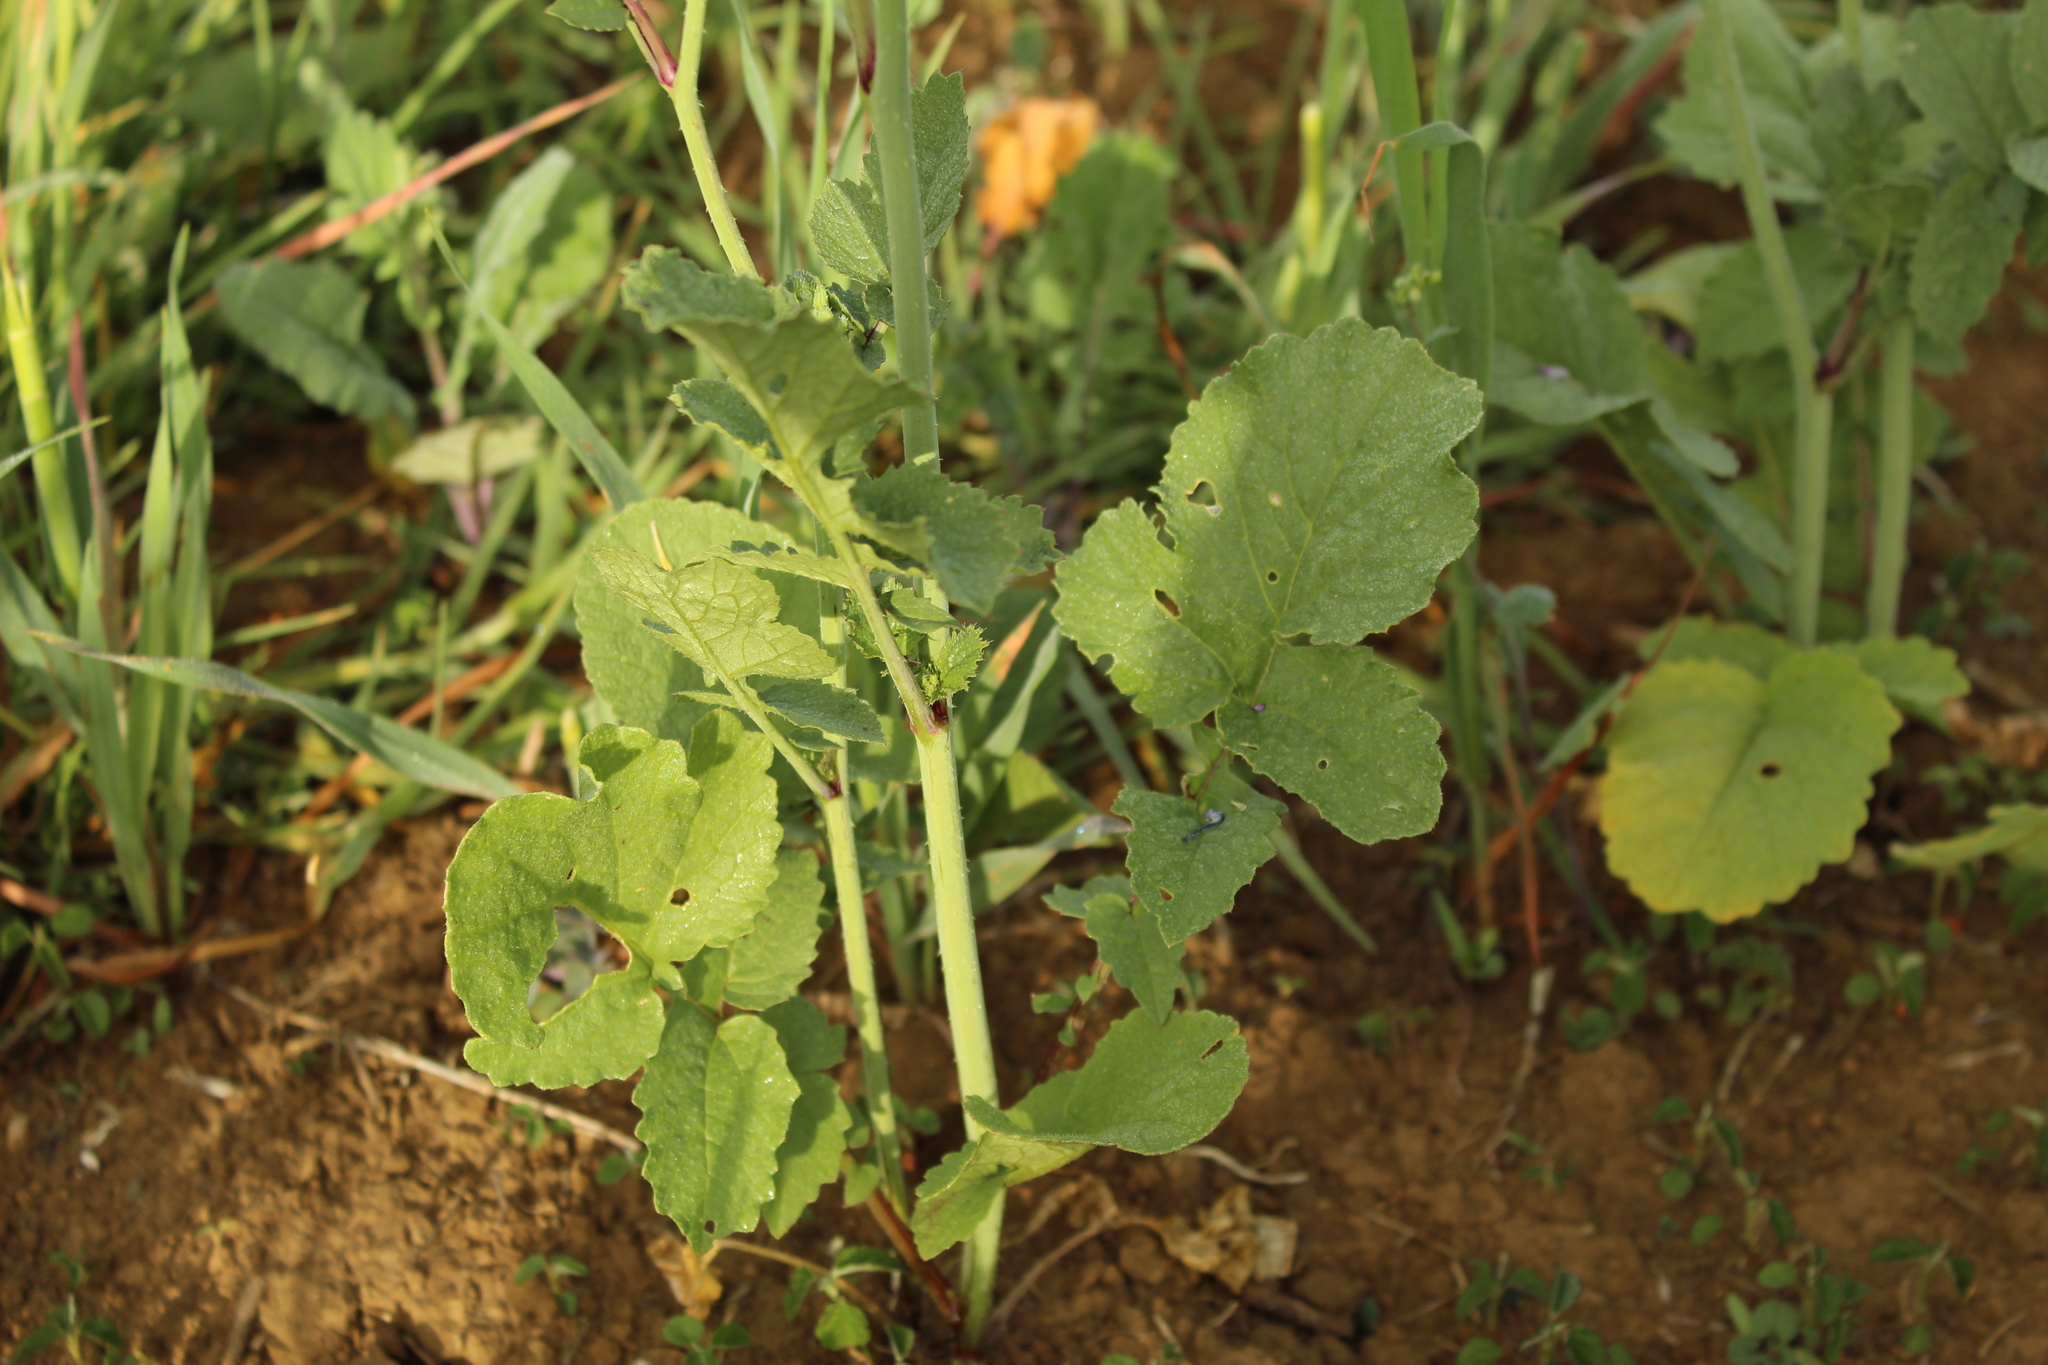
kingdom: Plantae
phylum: Tracheophyta
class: Magnoliopsida
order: Brassicales
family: Brassicaceae
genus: Raphanus
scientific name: Raphanus sativus
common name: Cultivated radish
